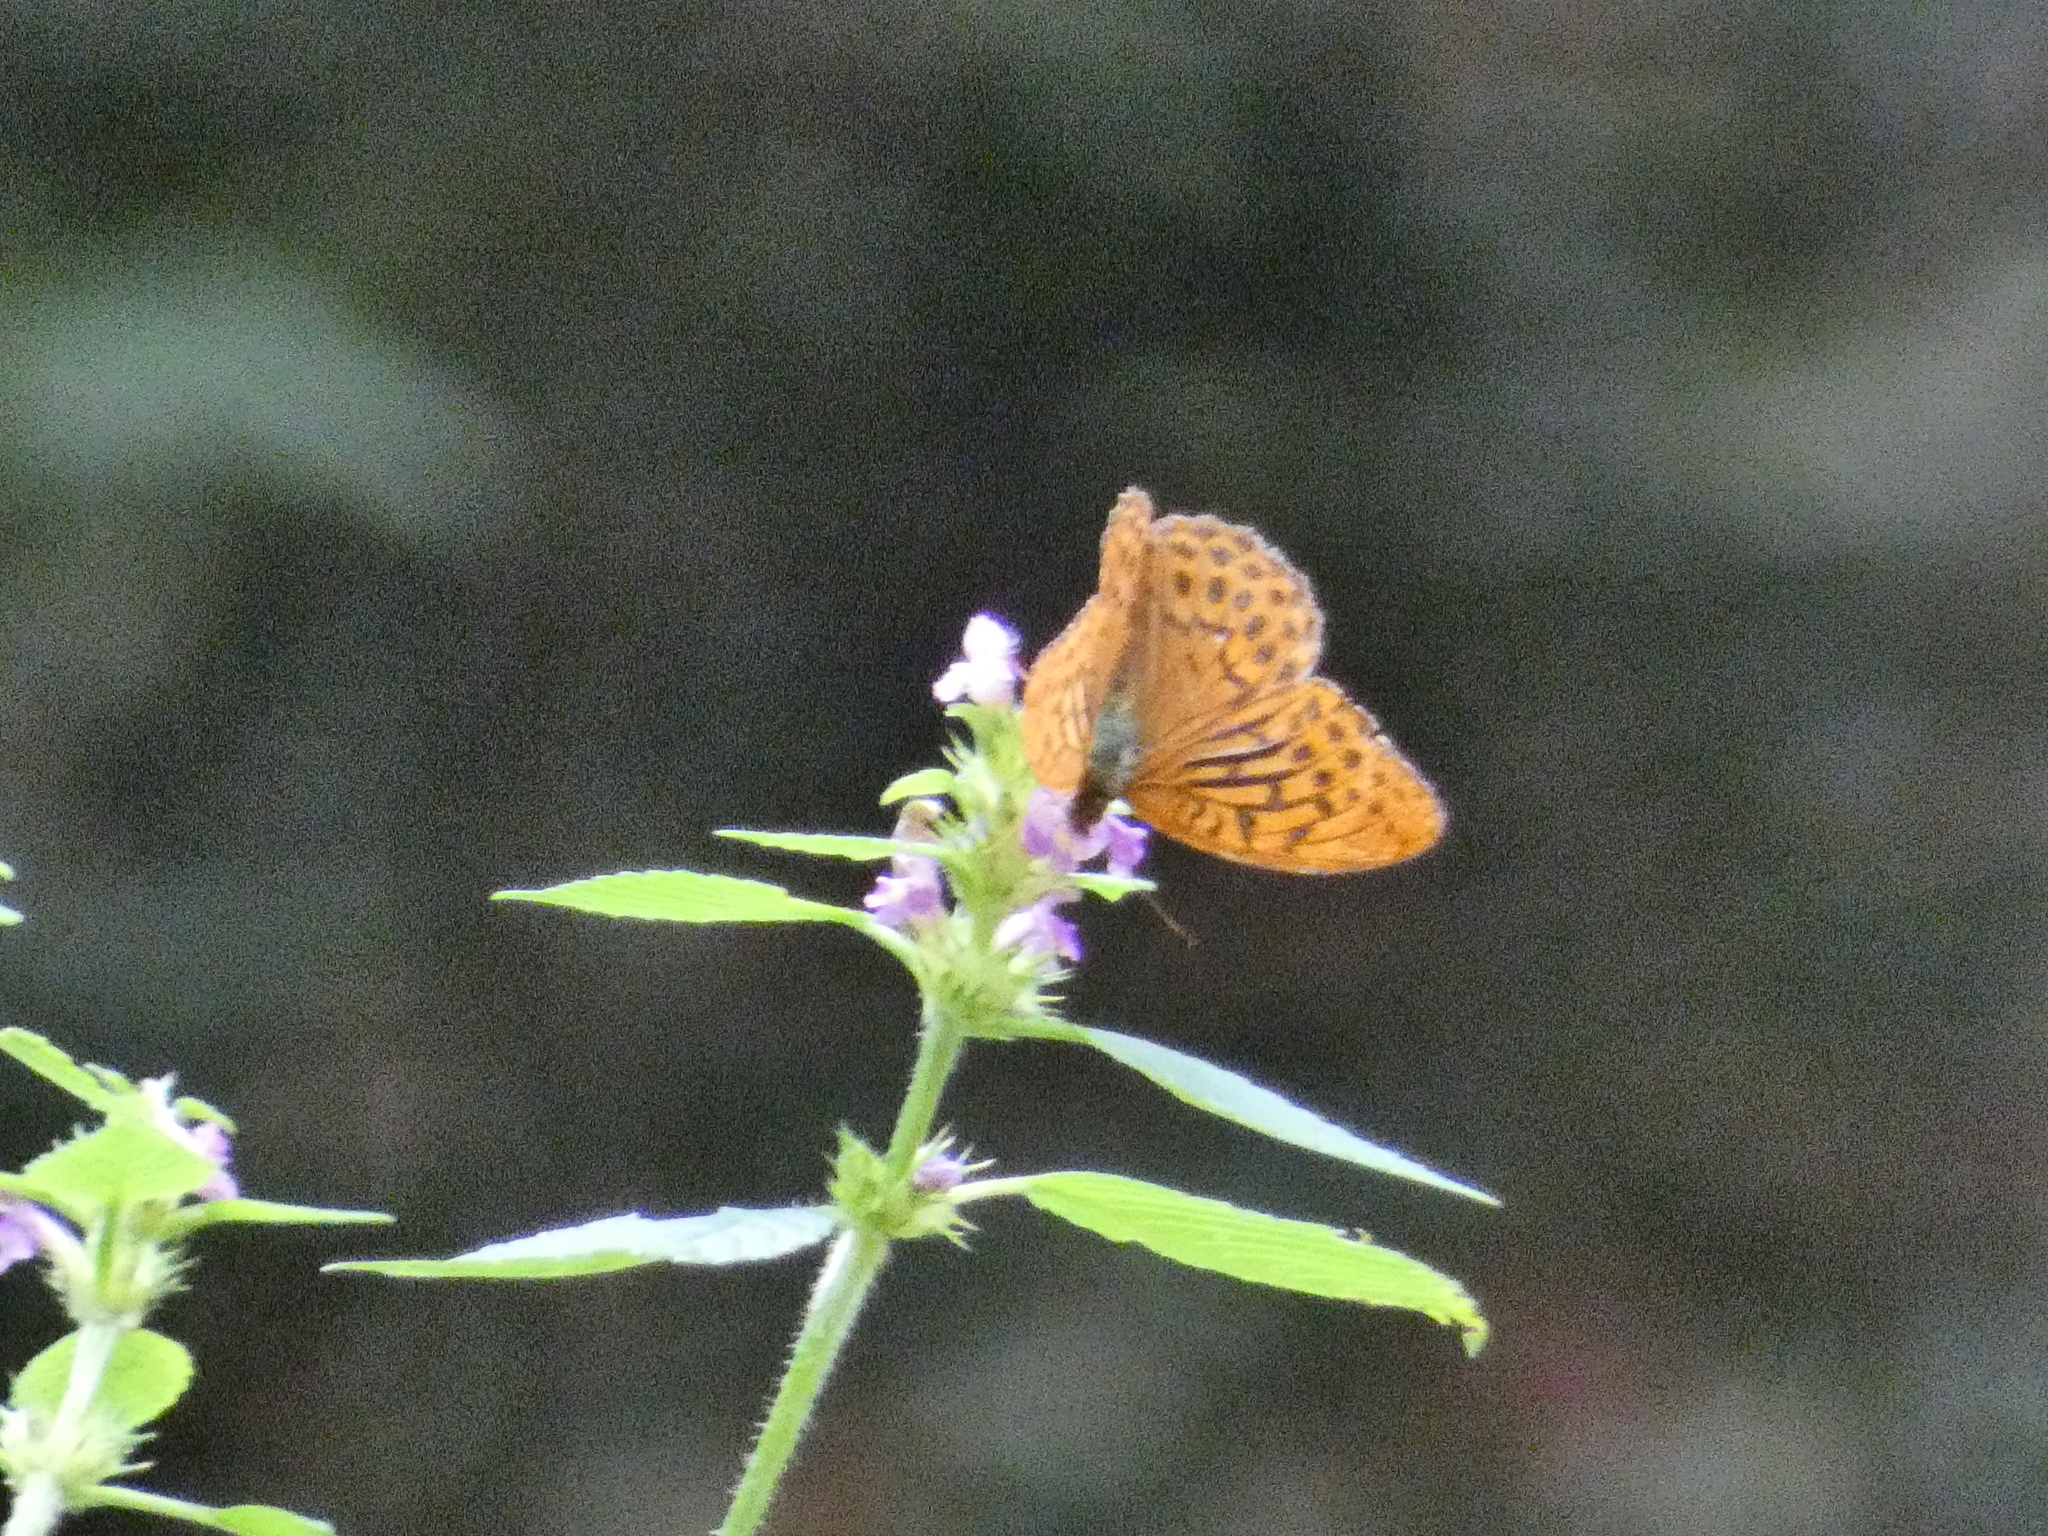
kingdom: Animalia
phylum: Arthropoda
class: Insecta
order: Lepidoptera
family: Nymphalidae
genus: Argynnis
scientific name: Argynnis paphia
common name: Silver-washed fritillary
